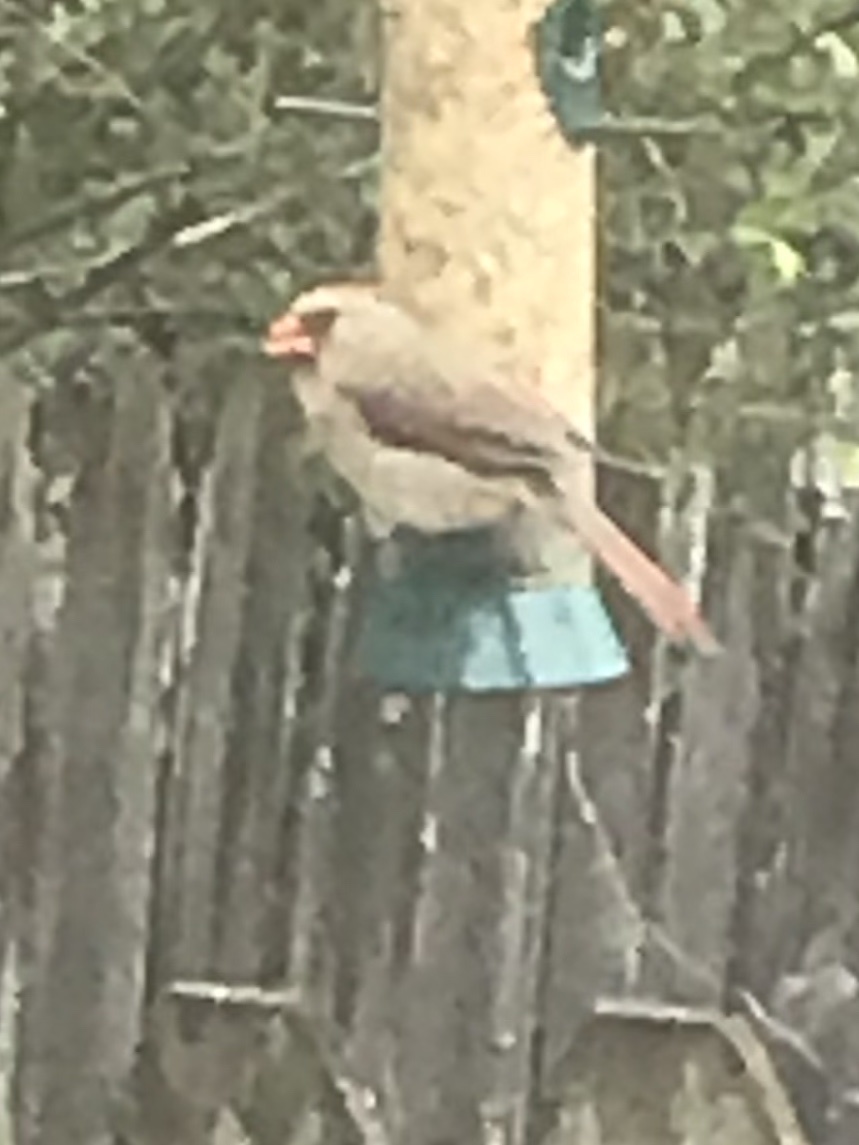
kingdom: Animalia
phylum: Chordata
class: Aves
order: Passeriformes
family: Cardinalidae
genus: Cardinalis
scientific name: Cardinalis cardinalis
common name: Northern cardinal
